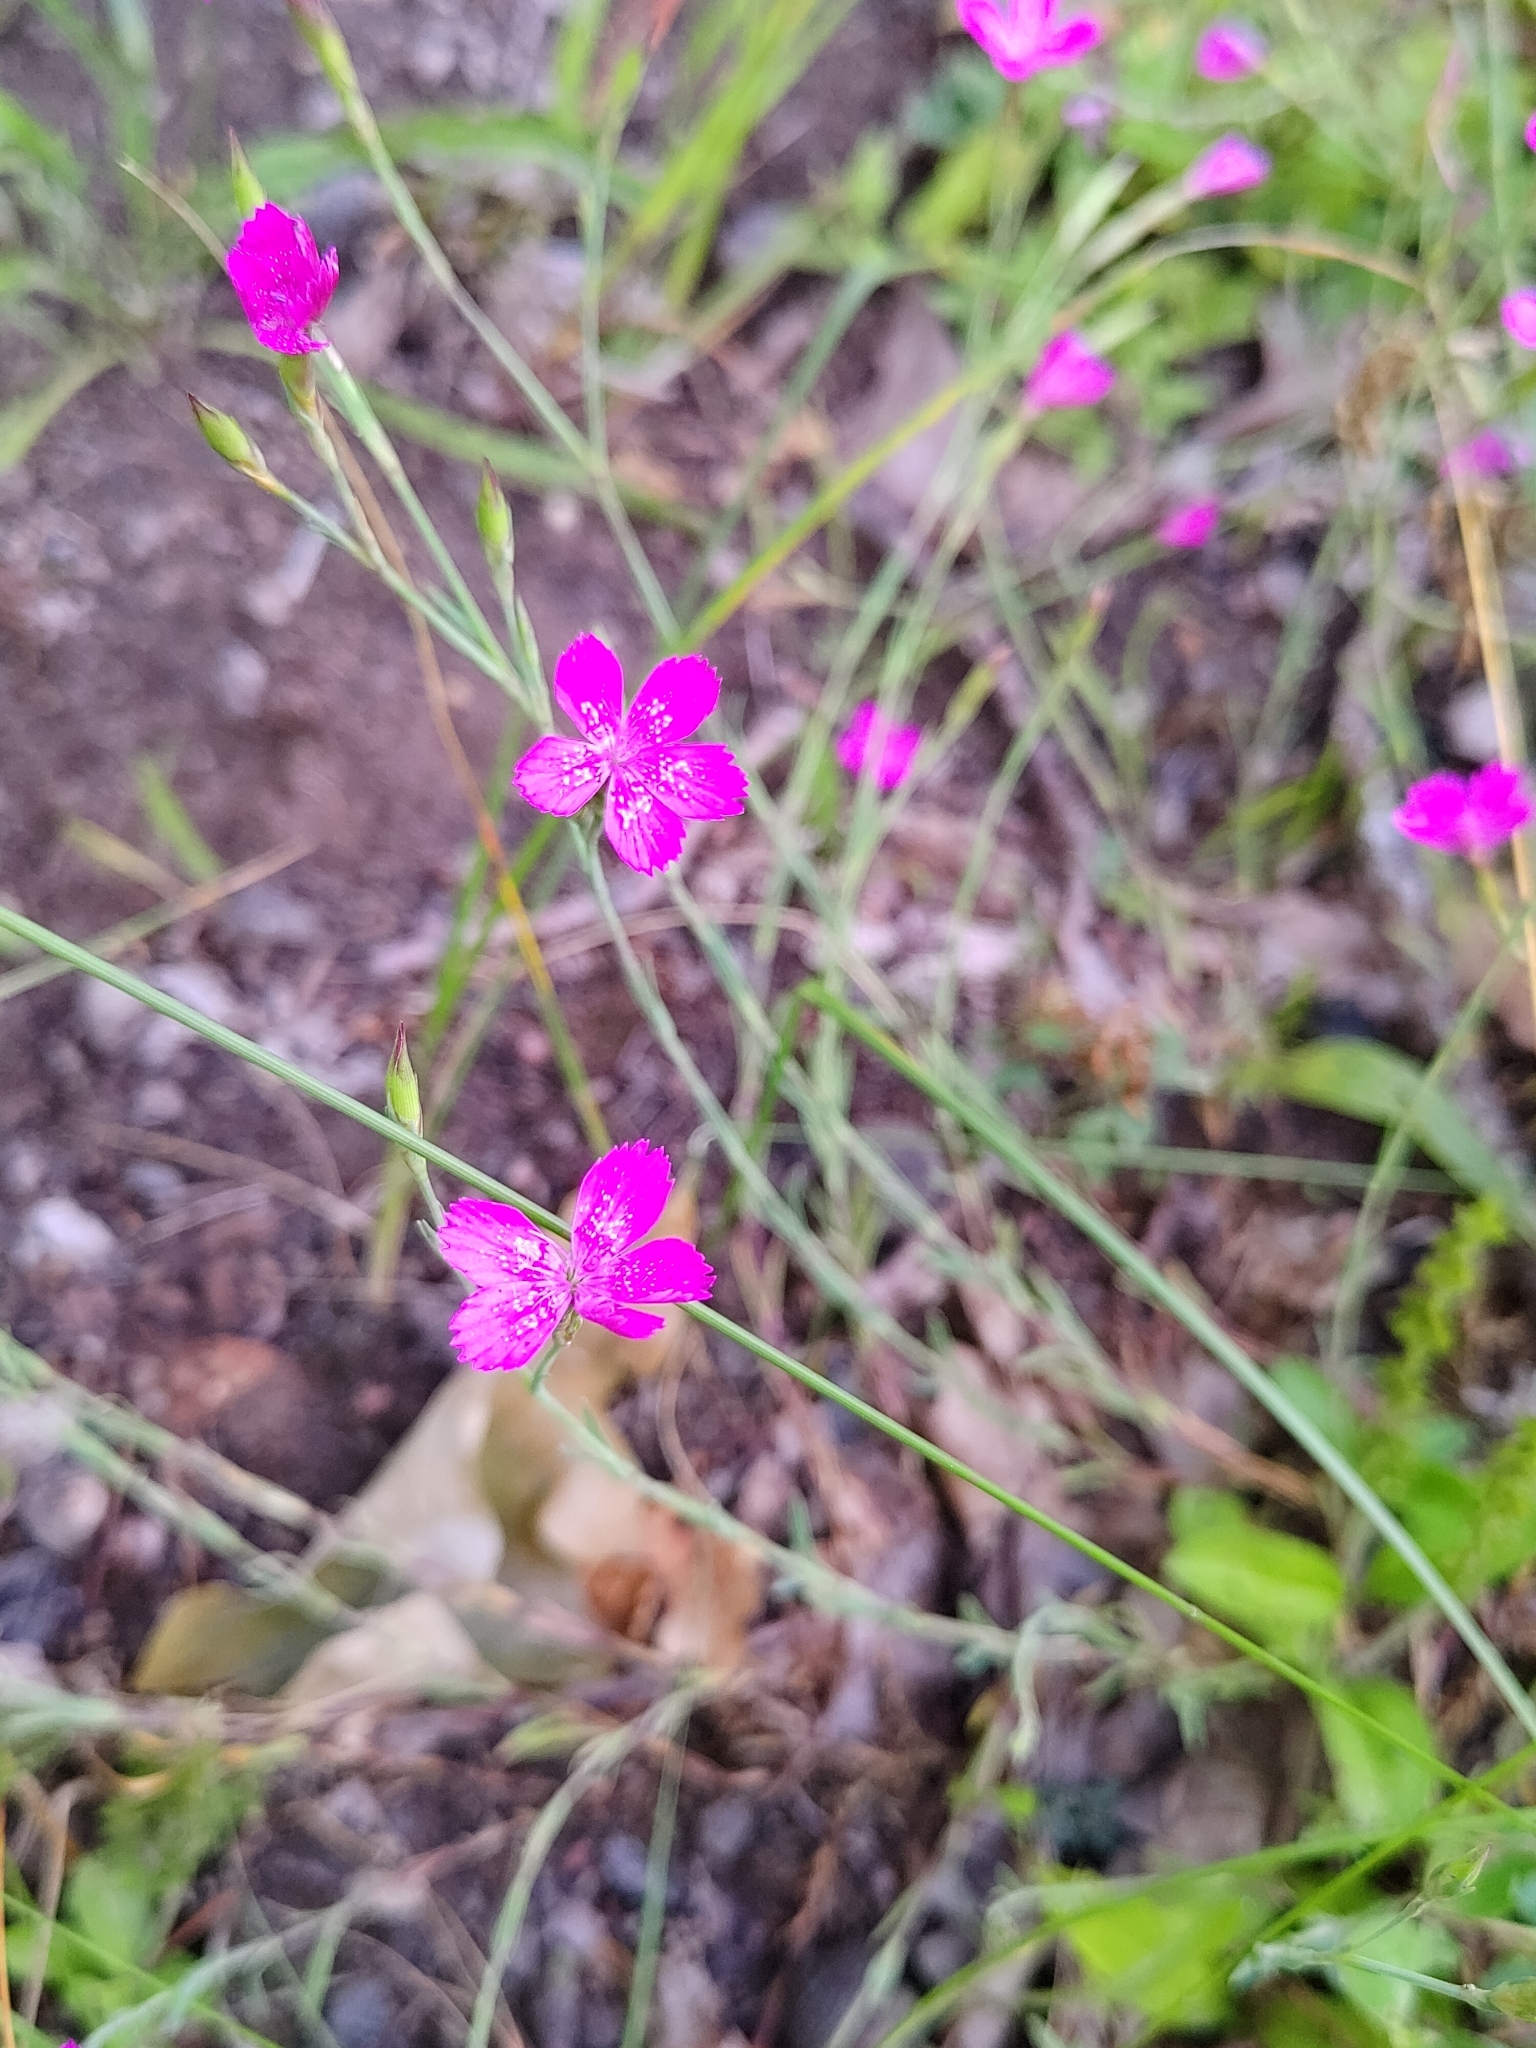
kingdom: Plantae
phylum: Tracheophyta
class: Magnoliopsida
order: Caryophyllales
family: Caryophyllaceae
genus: Dianthus
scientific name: Dianthus deltoides
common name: Maiden pink
